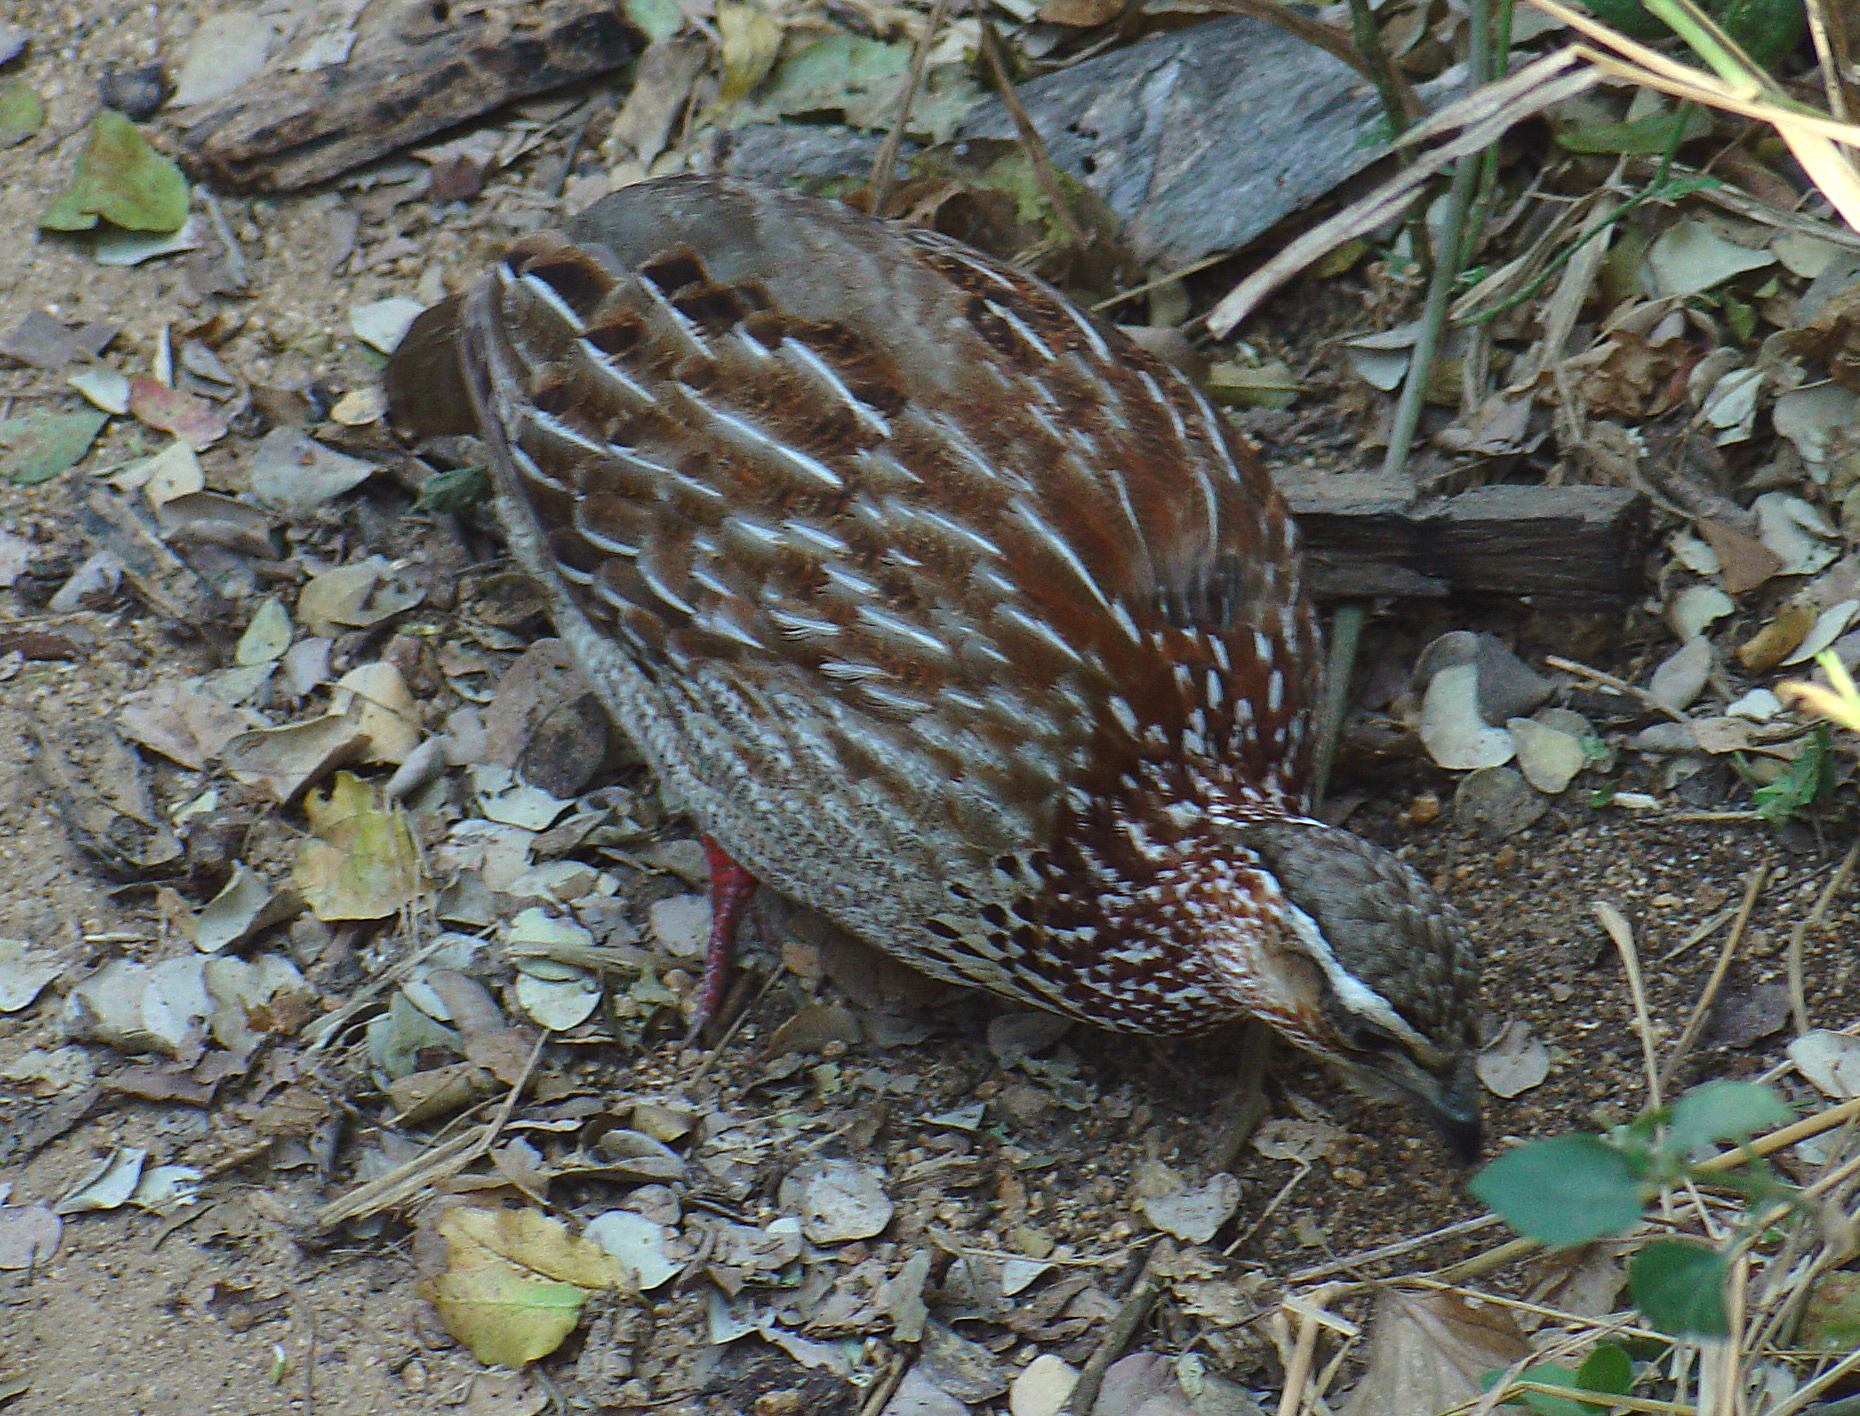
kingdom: Animalia
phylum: Chordata
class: Aves
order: Galliformes
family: Phasianidae
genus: Ortygornis
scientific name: Ortygornis sephaena
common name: Crested francolin
